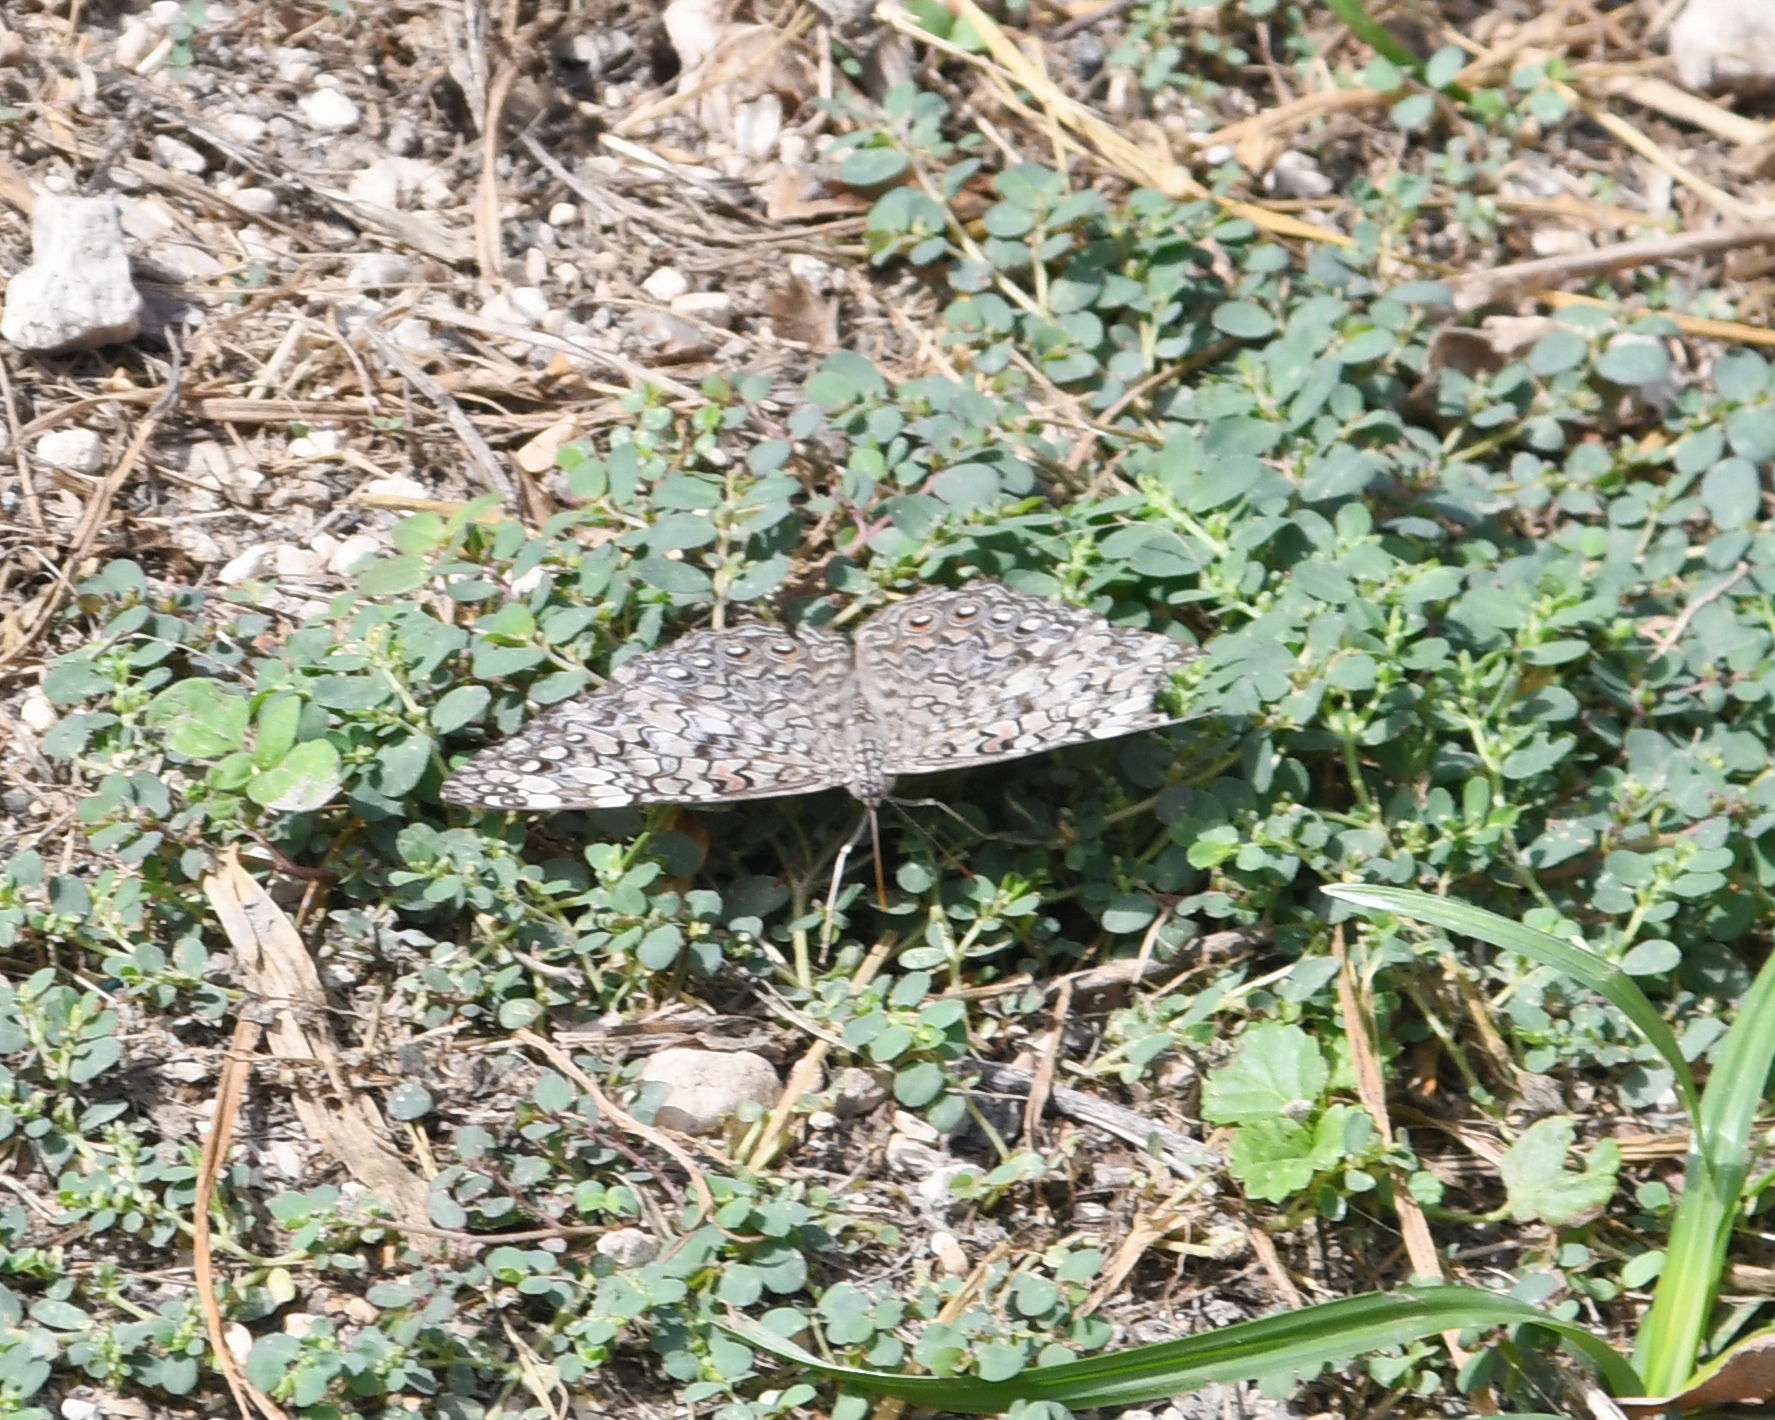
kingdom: Animalia
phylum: Arthropoda
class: Insecta
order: Lepidoptera
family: Nymphalidae
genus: Hamadryas
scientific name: Hamadryas februa
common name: Gray cracker
